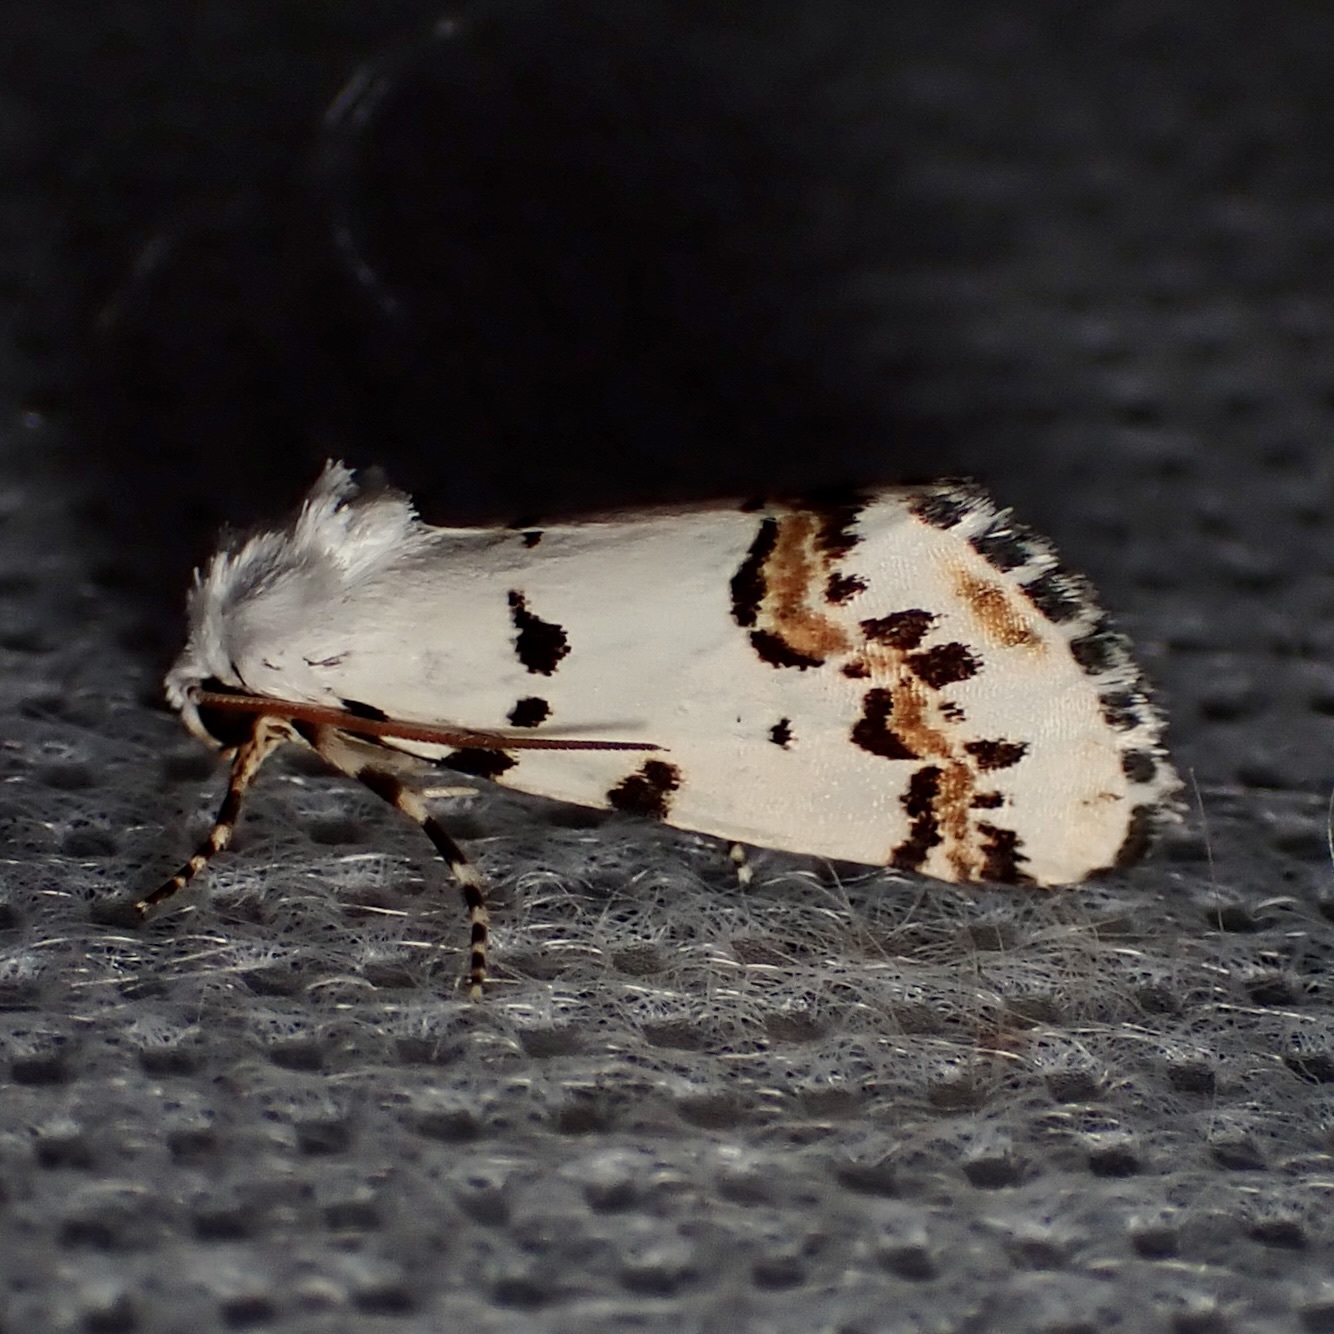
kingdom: Animalia
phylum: Arthropoda
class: Insecta
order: Lepidoptera
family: Noctuidae
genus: Grotella
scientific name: Grotella tricolor
